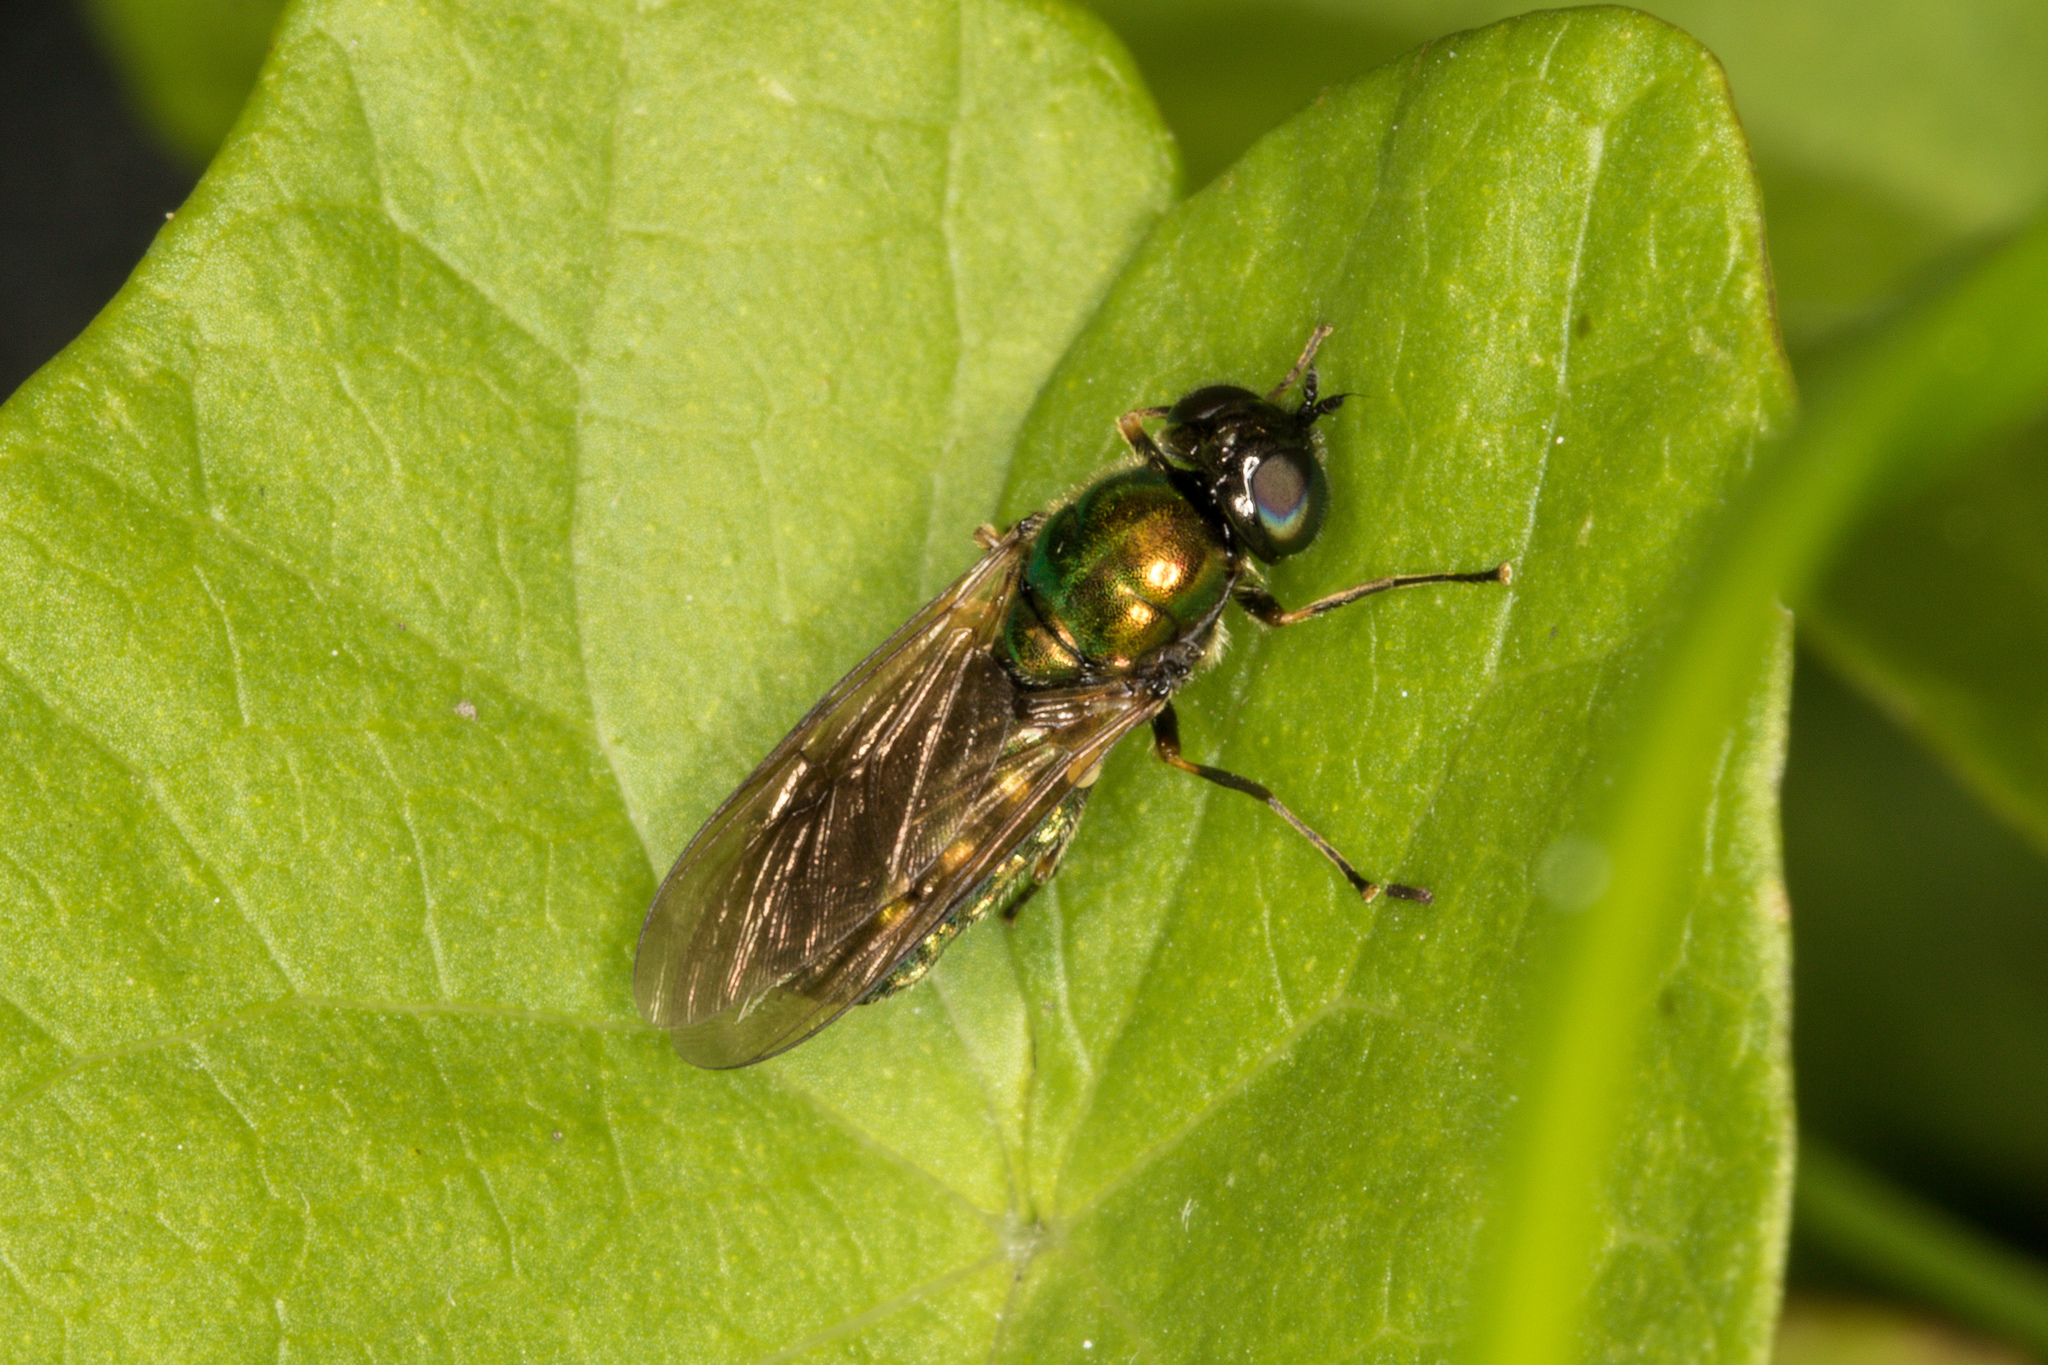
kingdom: Animalia
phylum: Arthropoda
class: Insecta
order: Diptera
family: Stratiomyidae
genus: Chloromyia
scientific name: Chloromyia formosa
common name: Soldier fly
